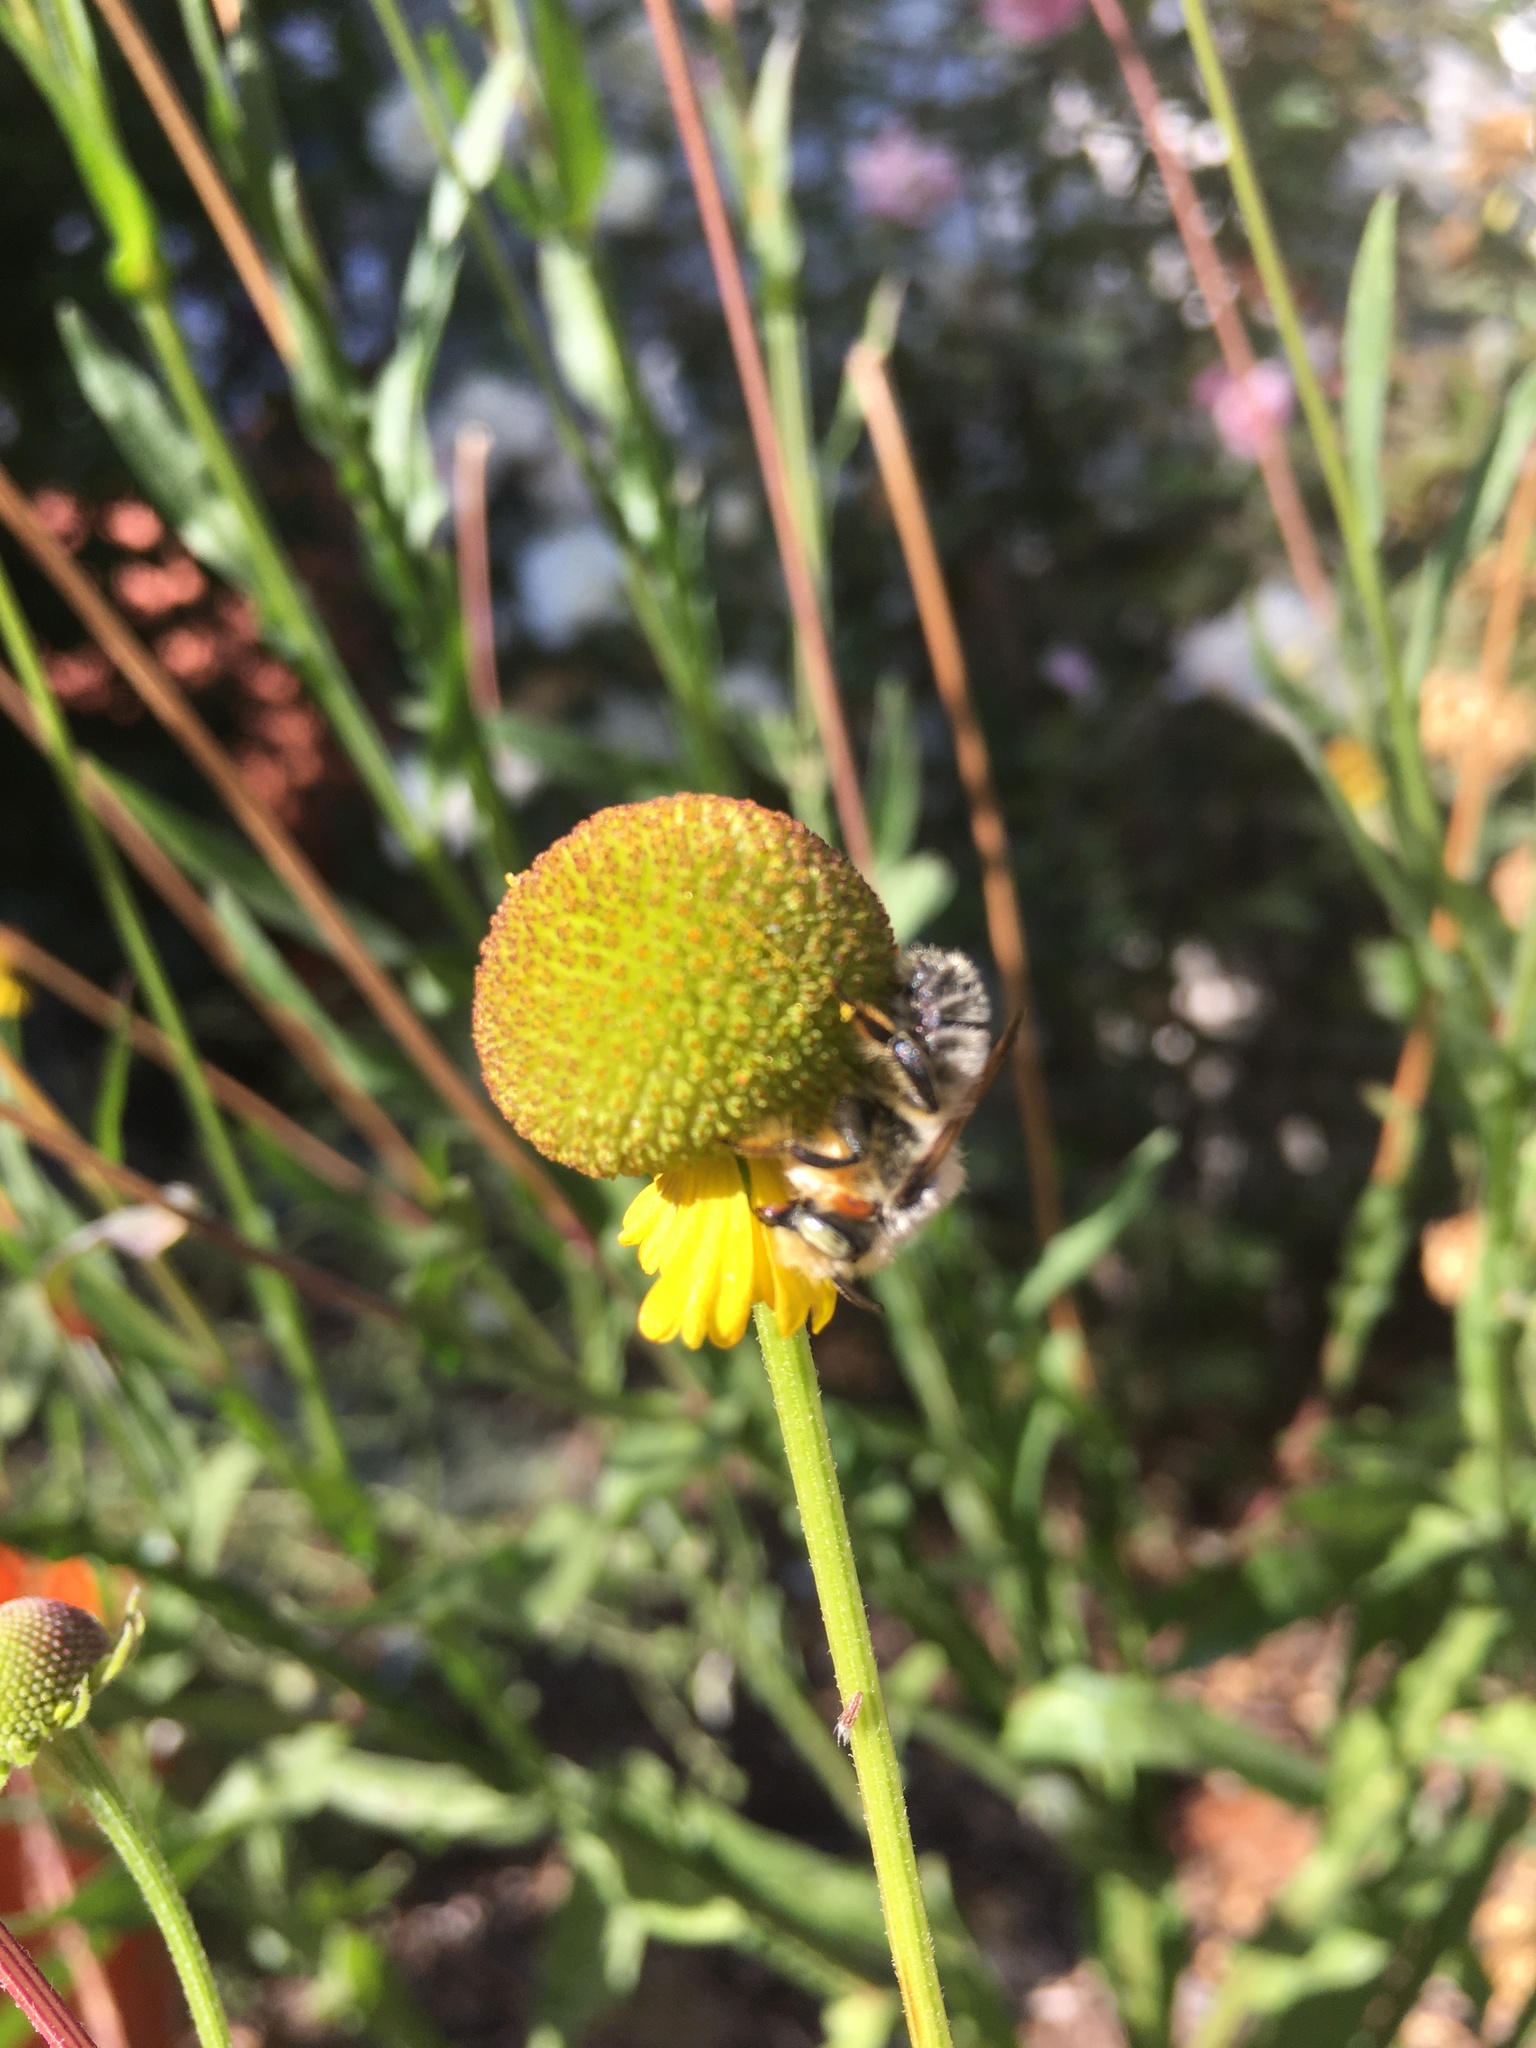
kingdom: Animalia
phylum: Arthropoda
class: Insecta
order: Hymenoptera
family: Megachilidae
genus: Megachile
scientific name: Megachile perihirta
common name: Western leafcutter
